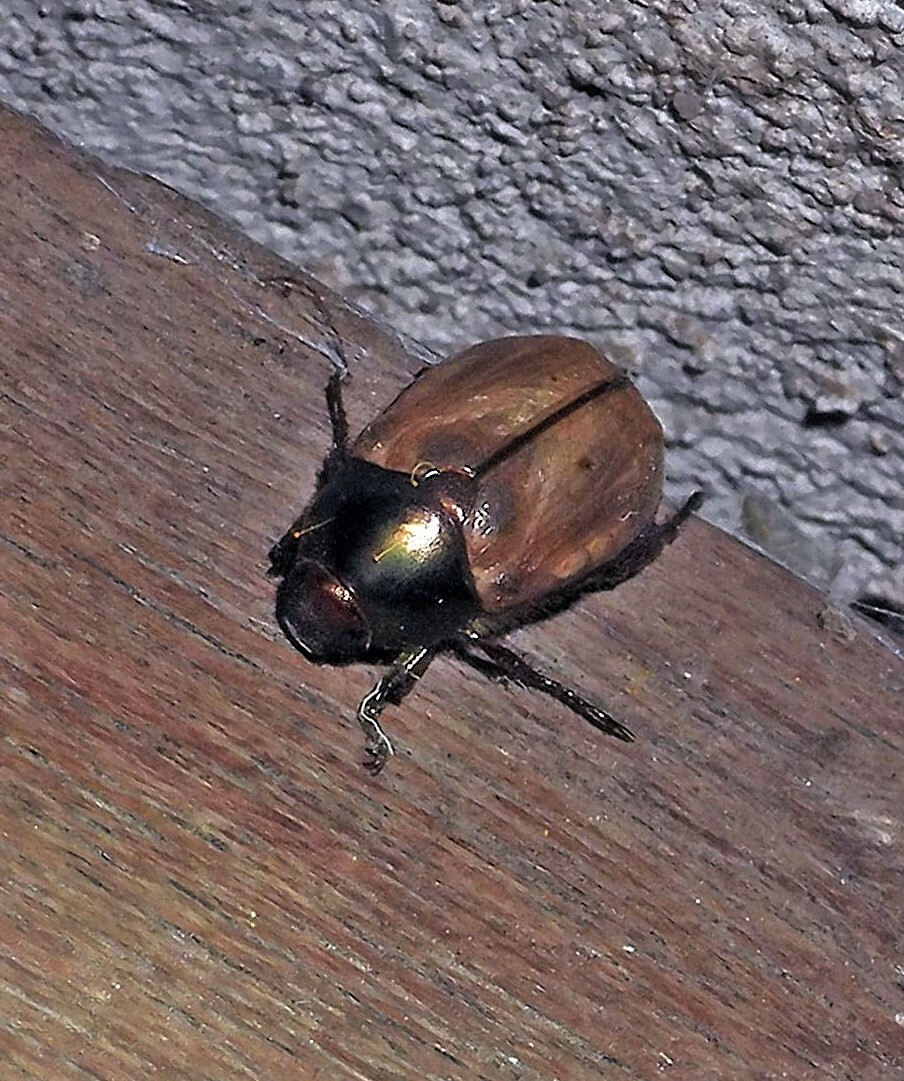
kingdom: Animalia
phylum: Arthropoda
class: Insecta
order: Coleoptera
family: Scarabaeidae
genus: Paranomala
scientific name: Paranomala testaceipennis
